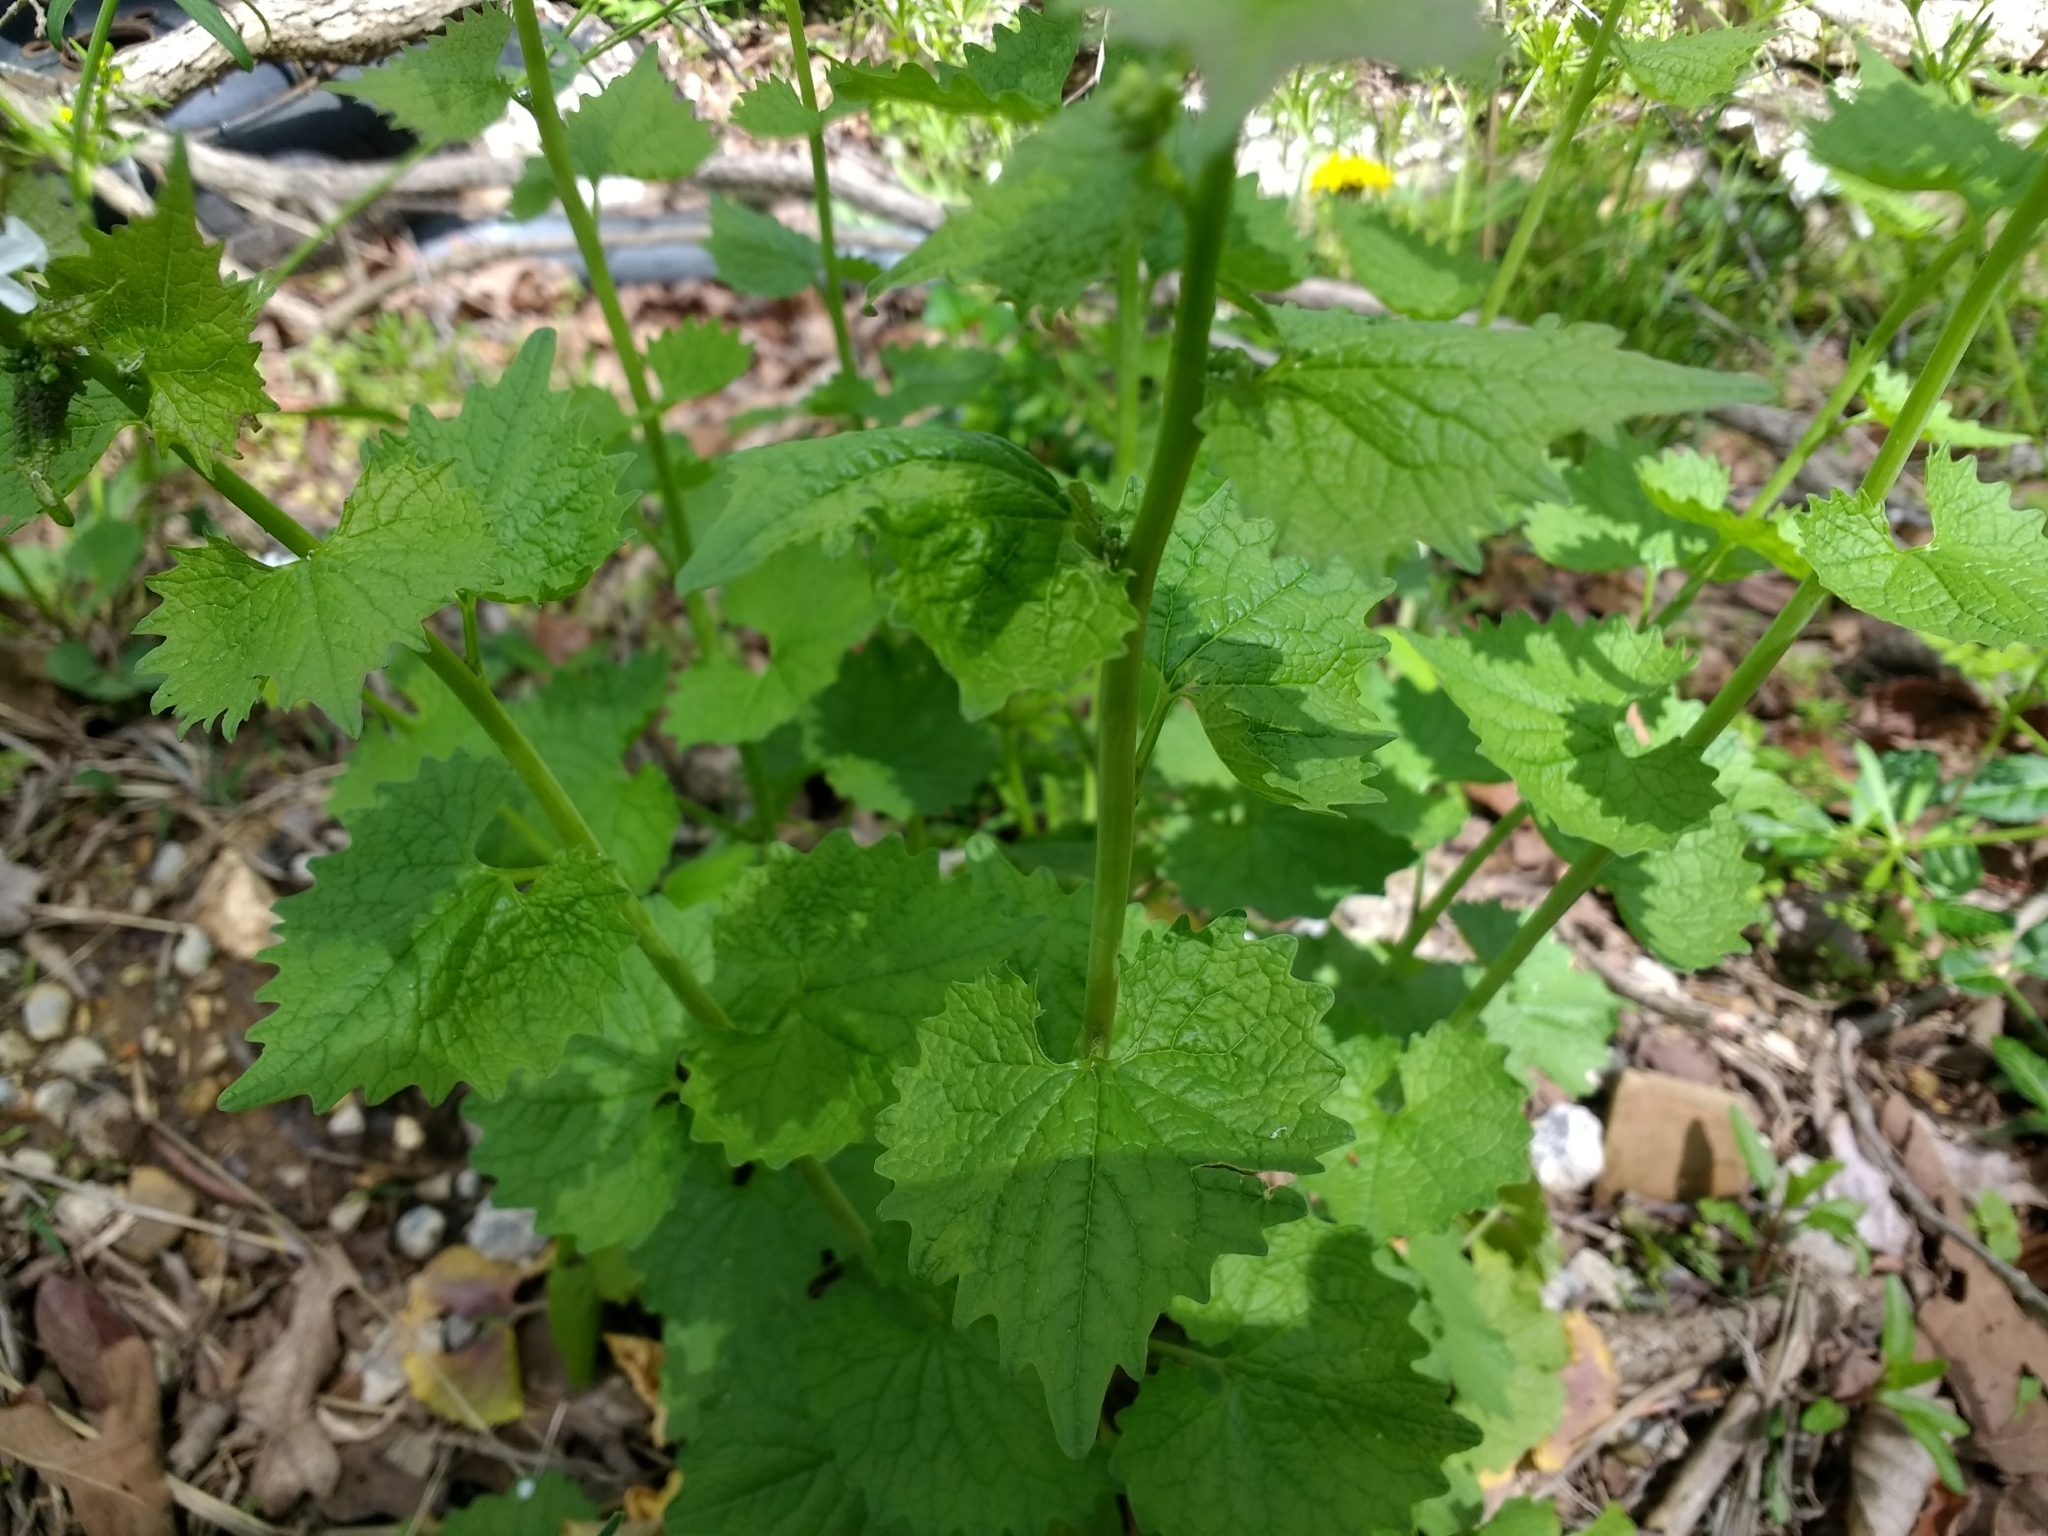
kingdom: Plantae
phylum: Tracheophyta
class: Magnoliopsida
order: Brassicales
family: Brassicaceae
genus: Alliaria
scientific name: Alliaria petiolata
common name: Garlic mustard
